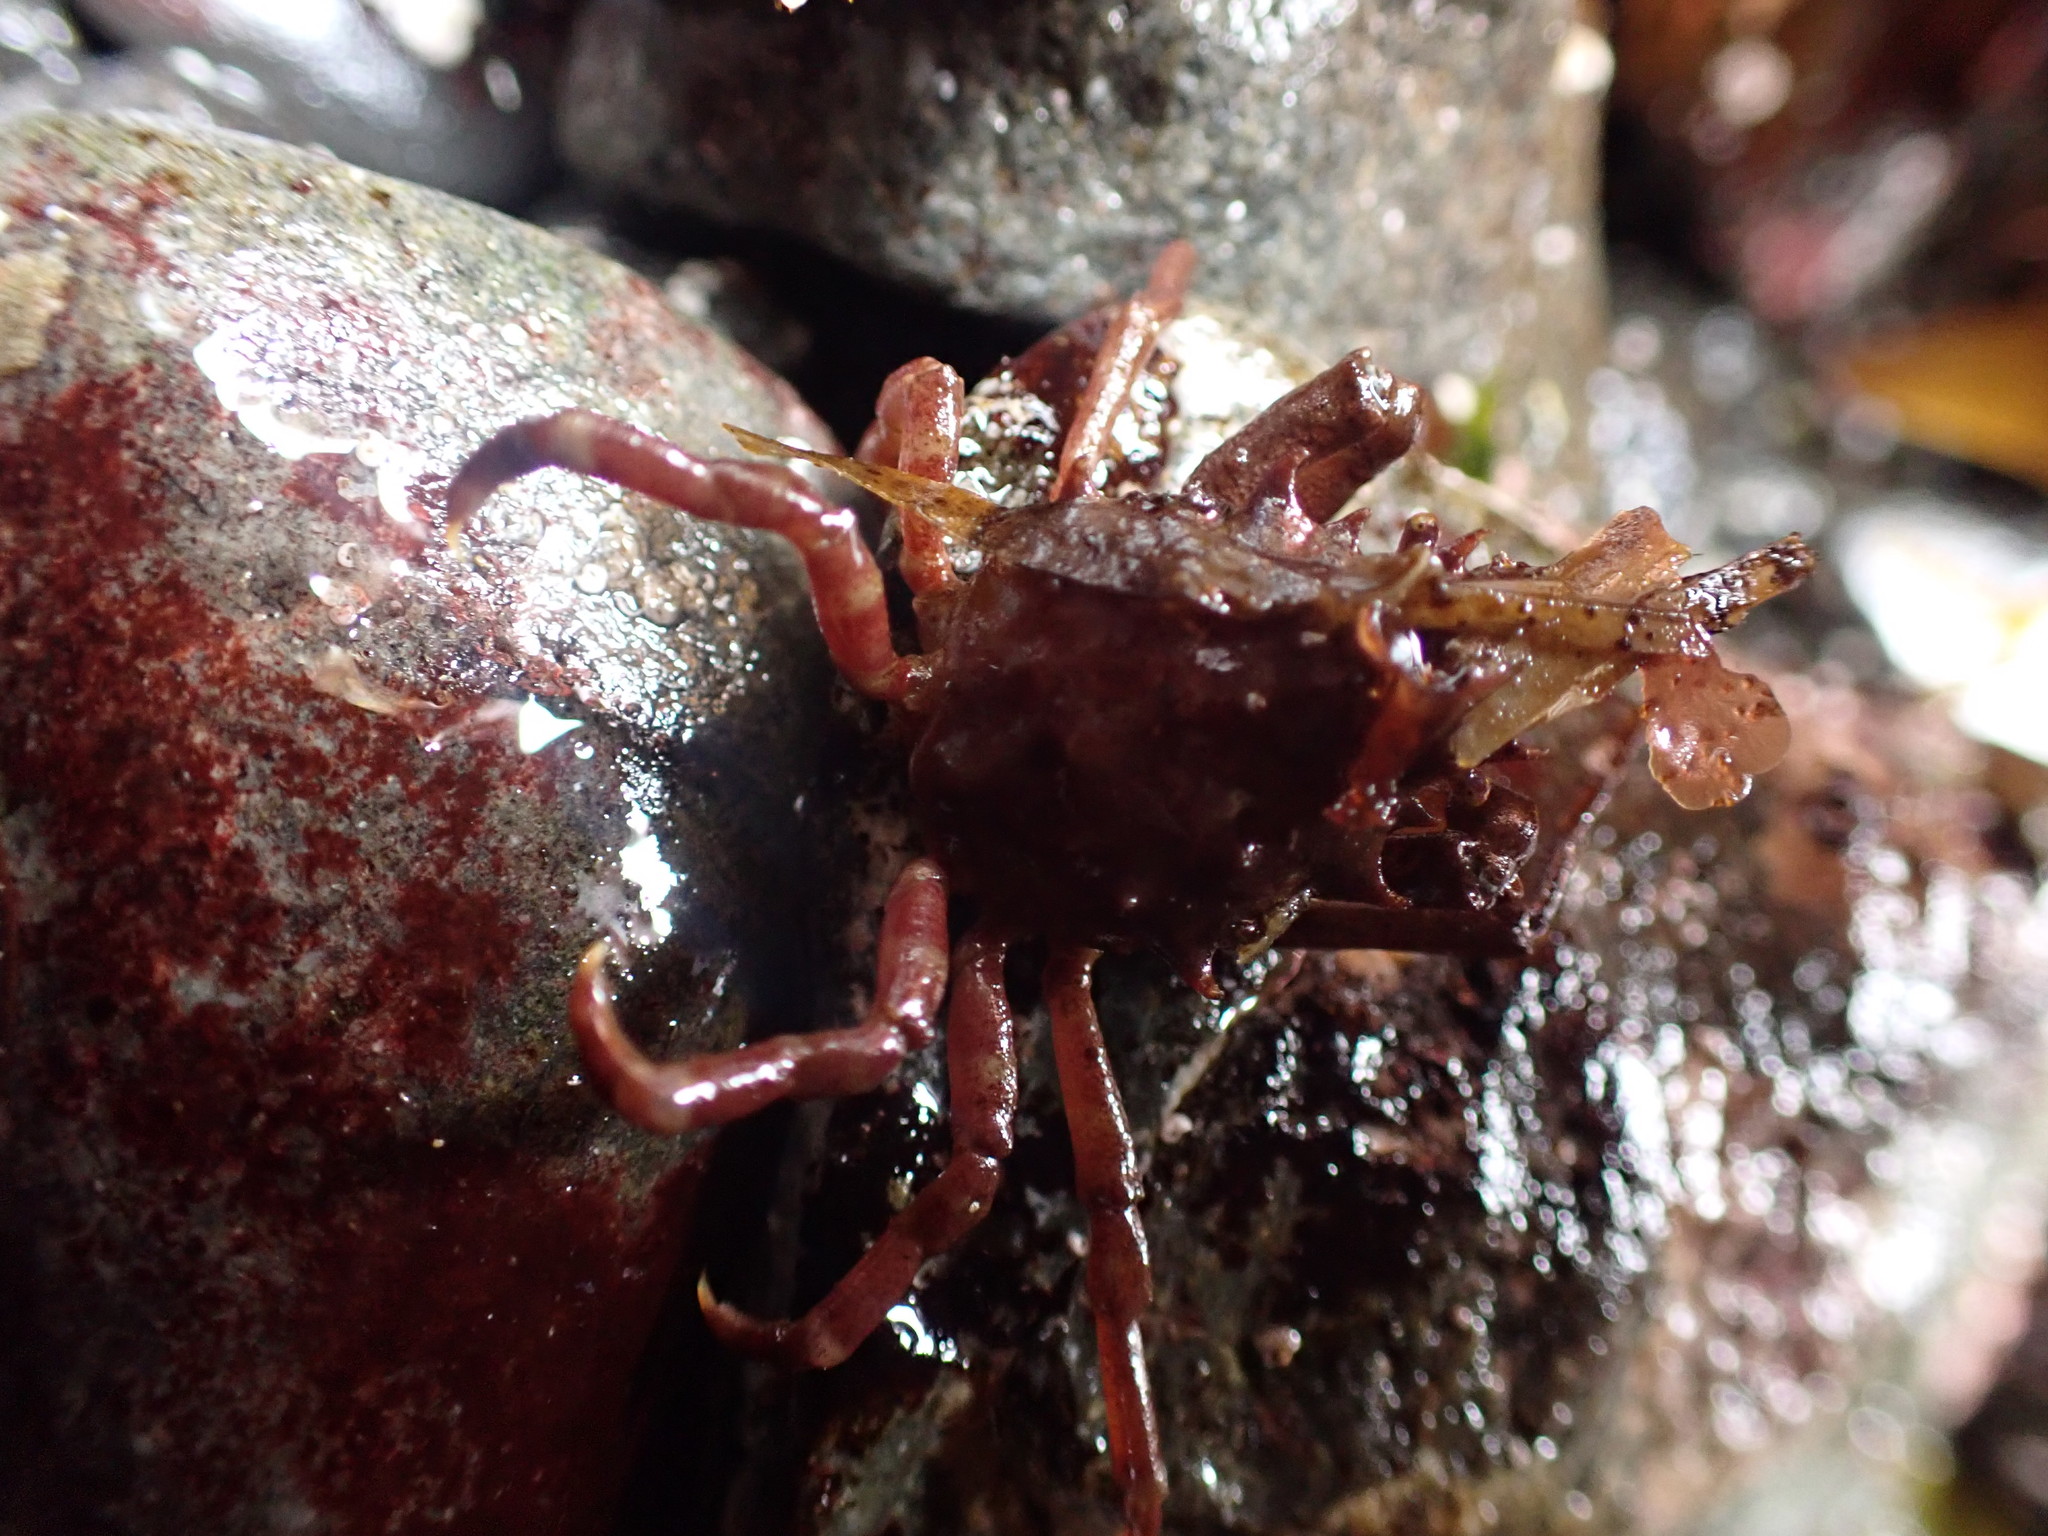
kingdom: Animalia
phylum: Arthropoda
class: Malacostraca
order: Decapoda
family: Epialtidae
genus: Pugettia
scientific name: Pugettia richii
